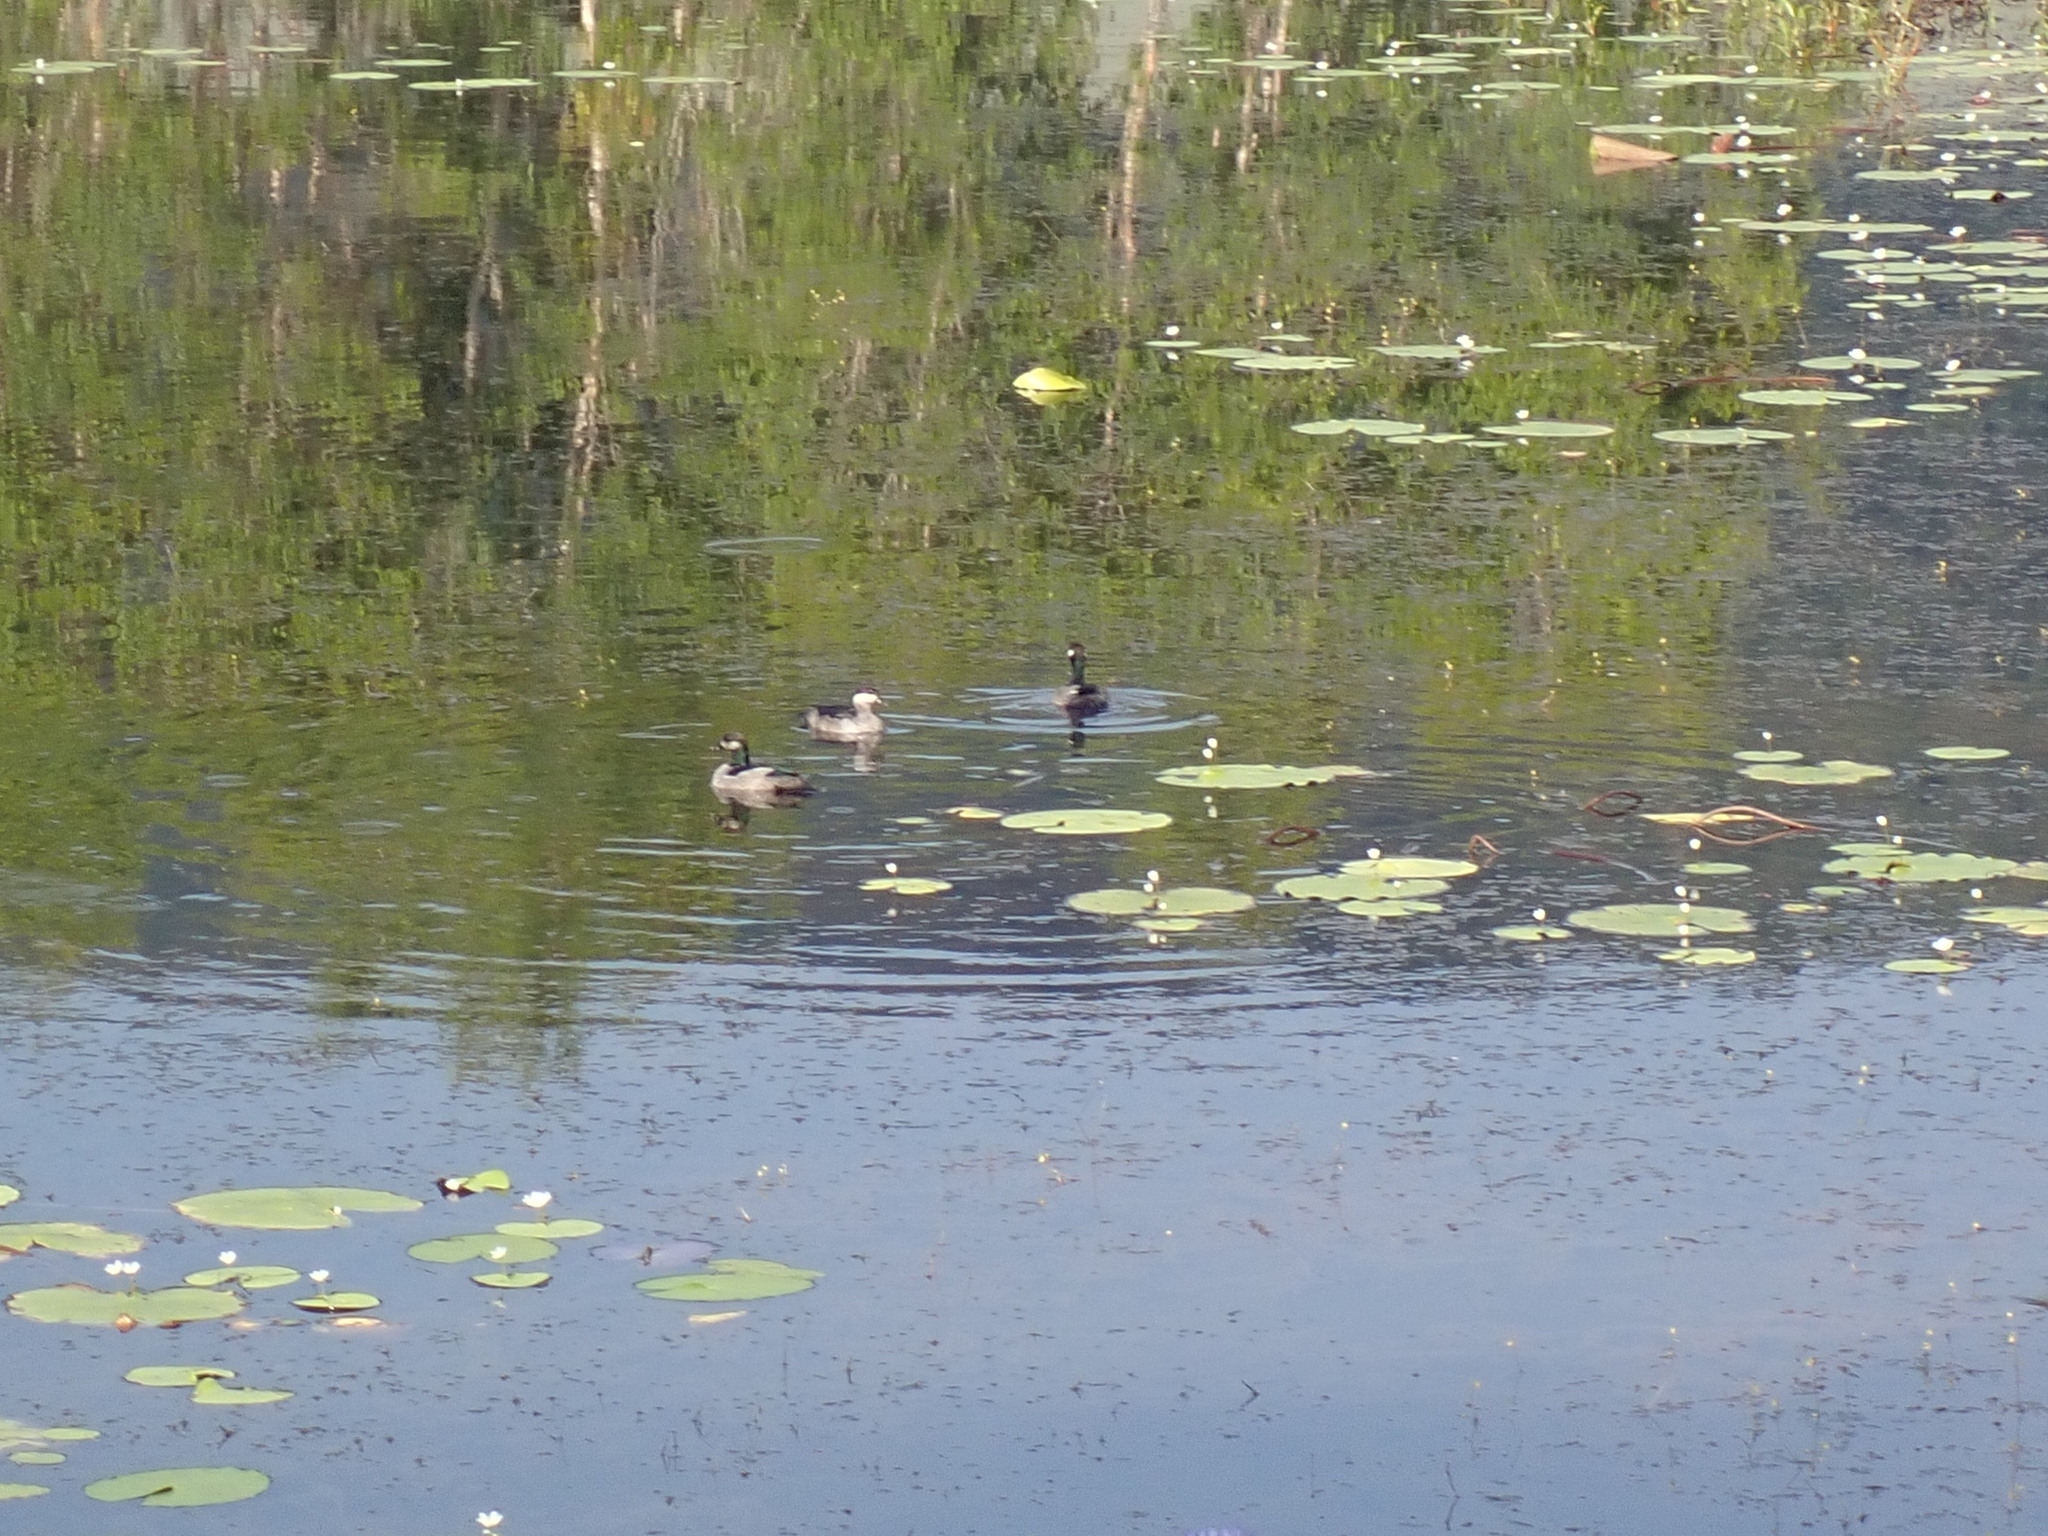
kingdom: Animalia
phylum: Chordata
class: Aves
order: Anseriformes
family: Anatidae
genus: Nettapus
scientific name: Nettapus pulchellus
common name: Green pygmy-goose
